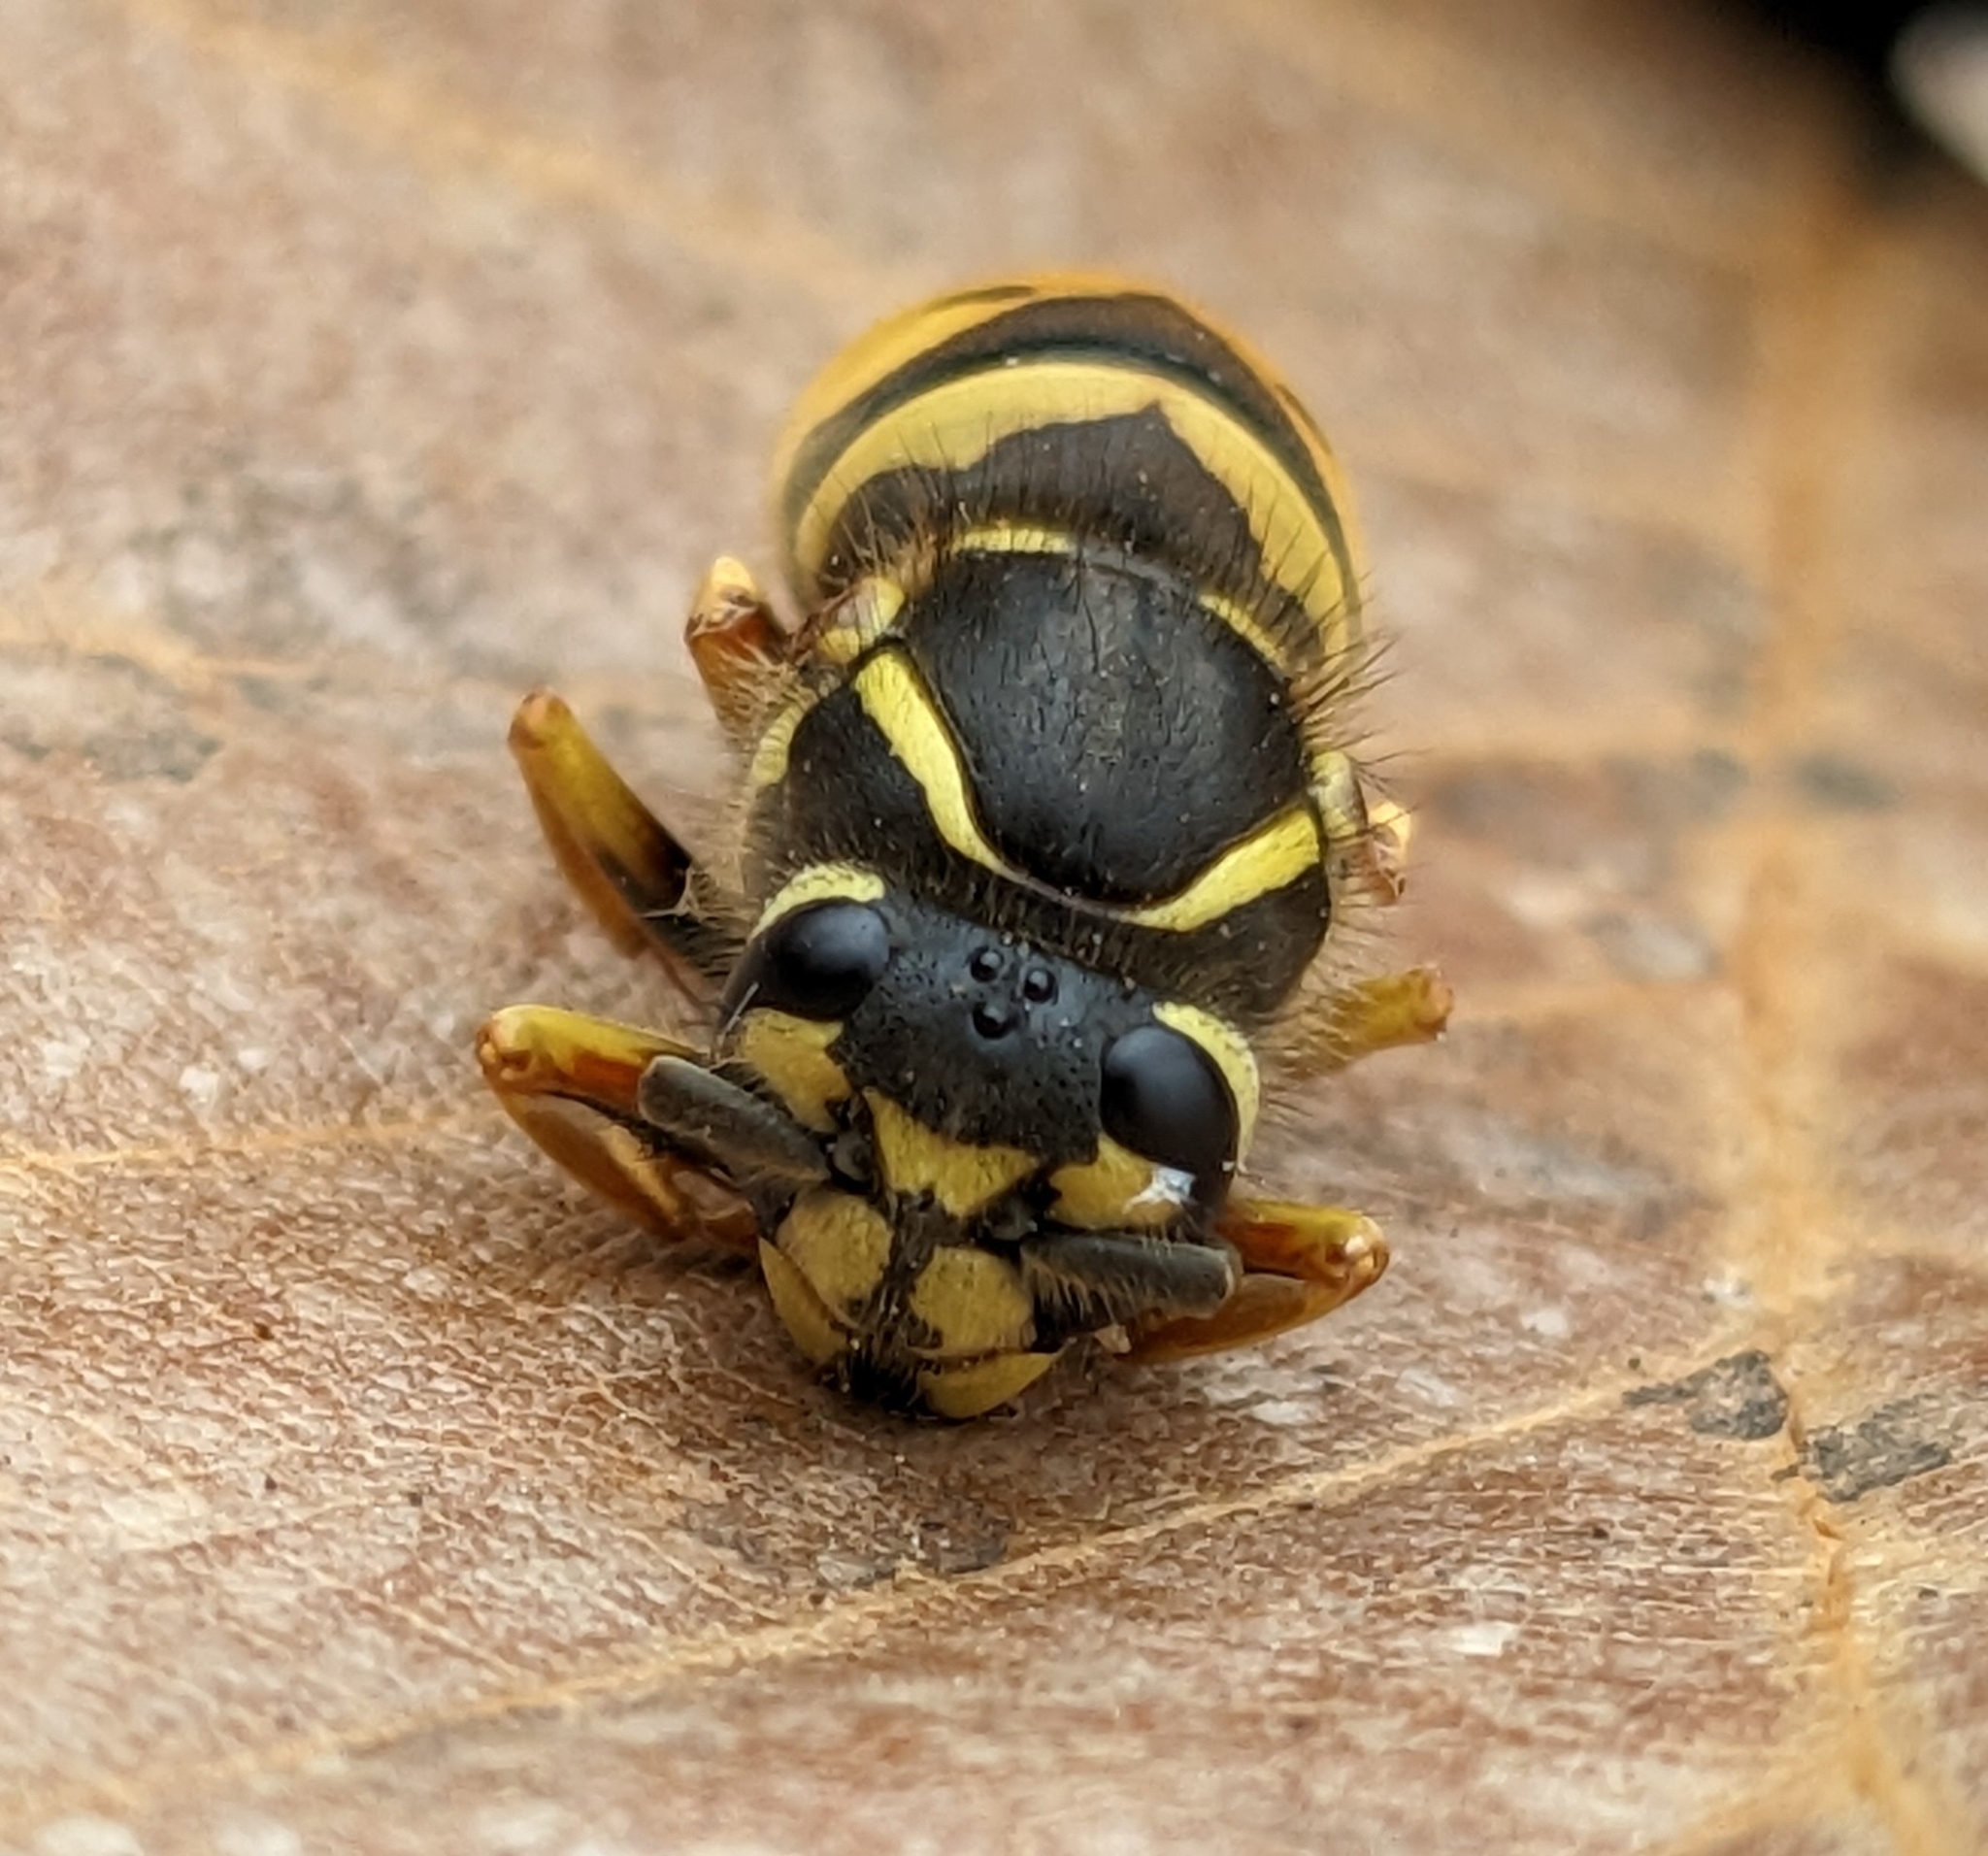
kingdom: Animalia
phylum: Arthropoda
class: Insecta
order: Hymenoptera
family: Vespidae
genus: Vespula
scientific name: Vespula flavopilosa
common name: Downy yellowjacket
